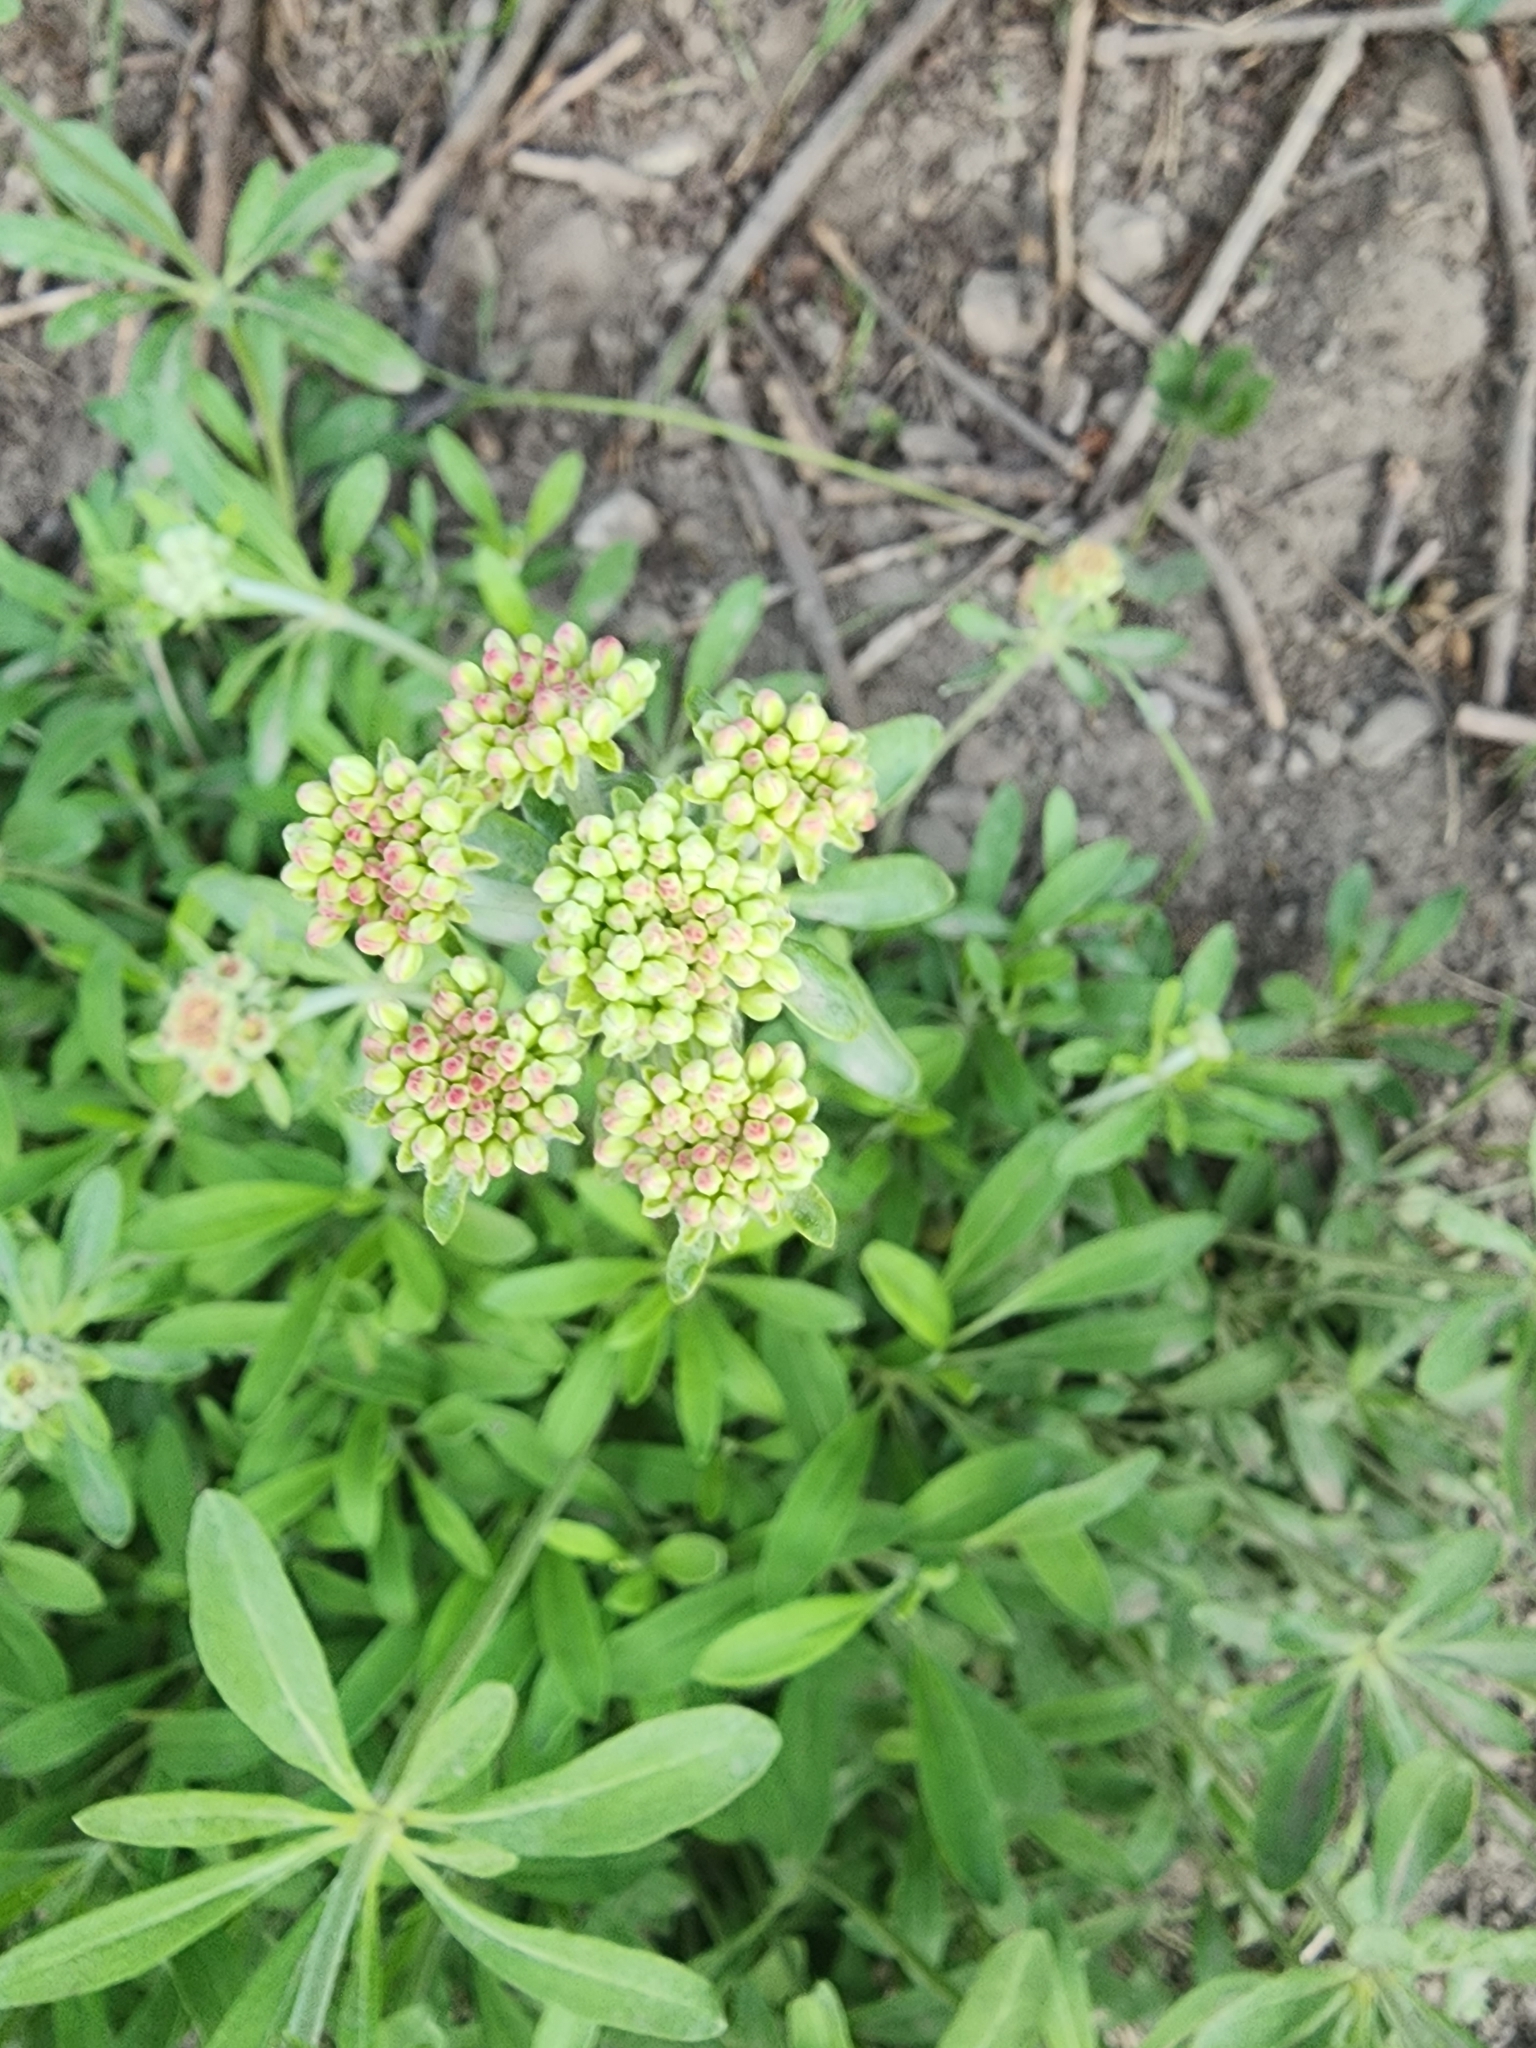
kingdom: Plantae
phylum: Tracheophyta
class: Magnoliopsida
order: Caryophyllales
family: Polygonaceae
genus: Eriogonum
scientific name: Eriogonum heracleoides
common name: Wyeth's buckwheat
